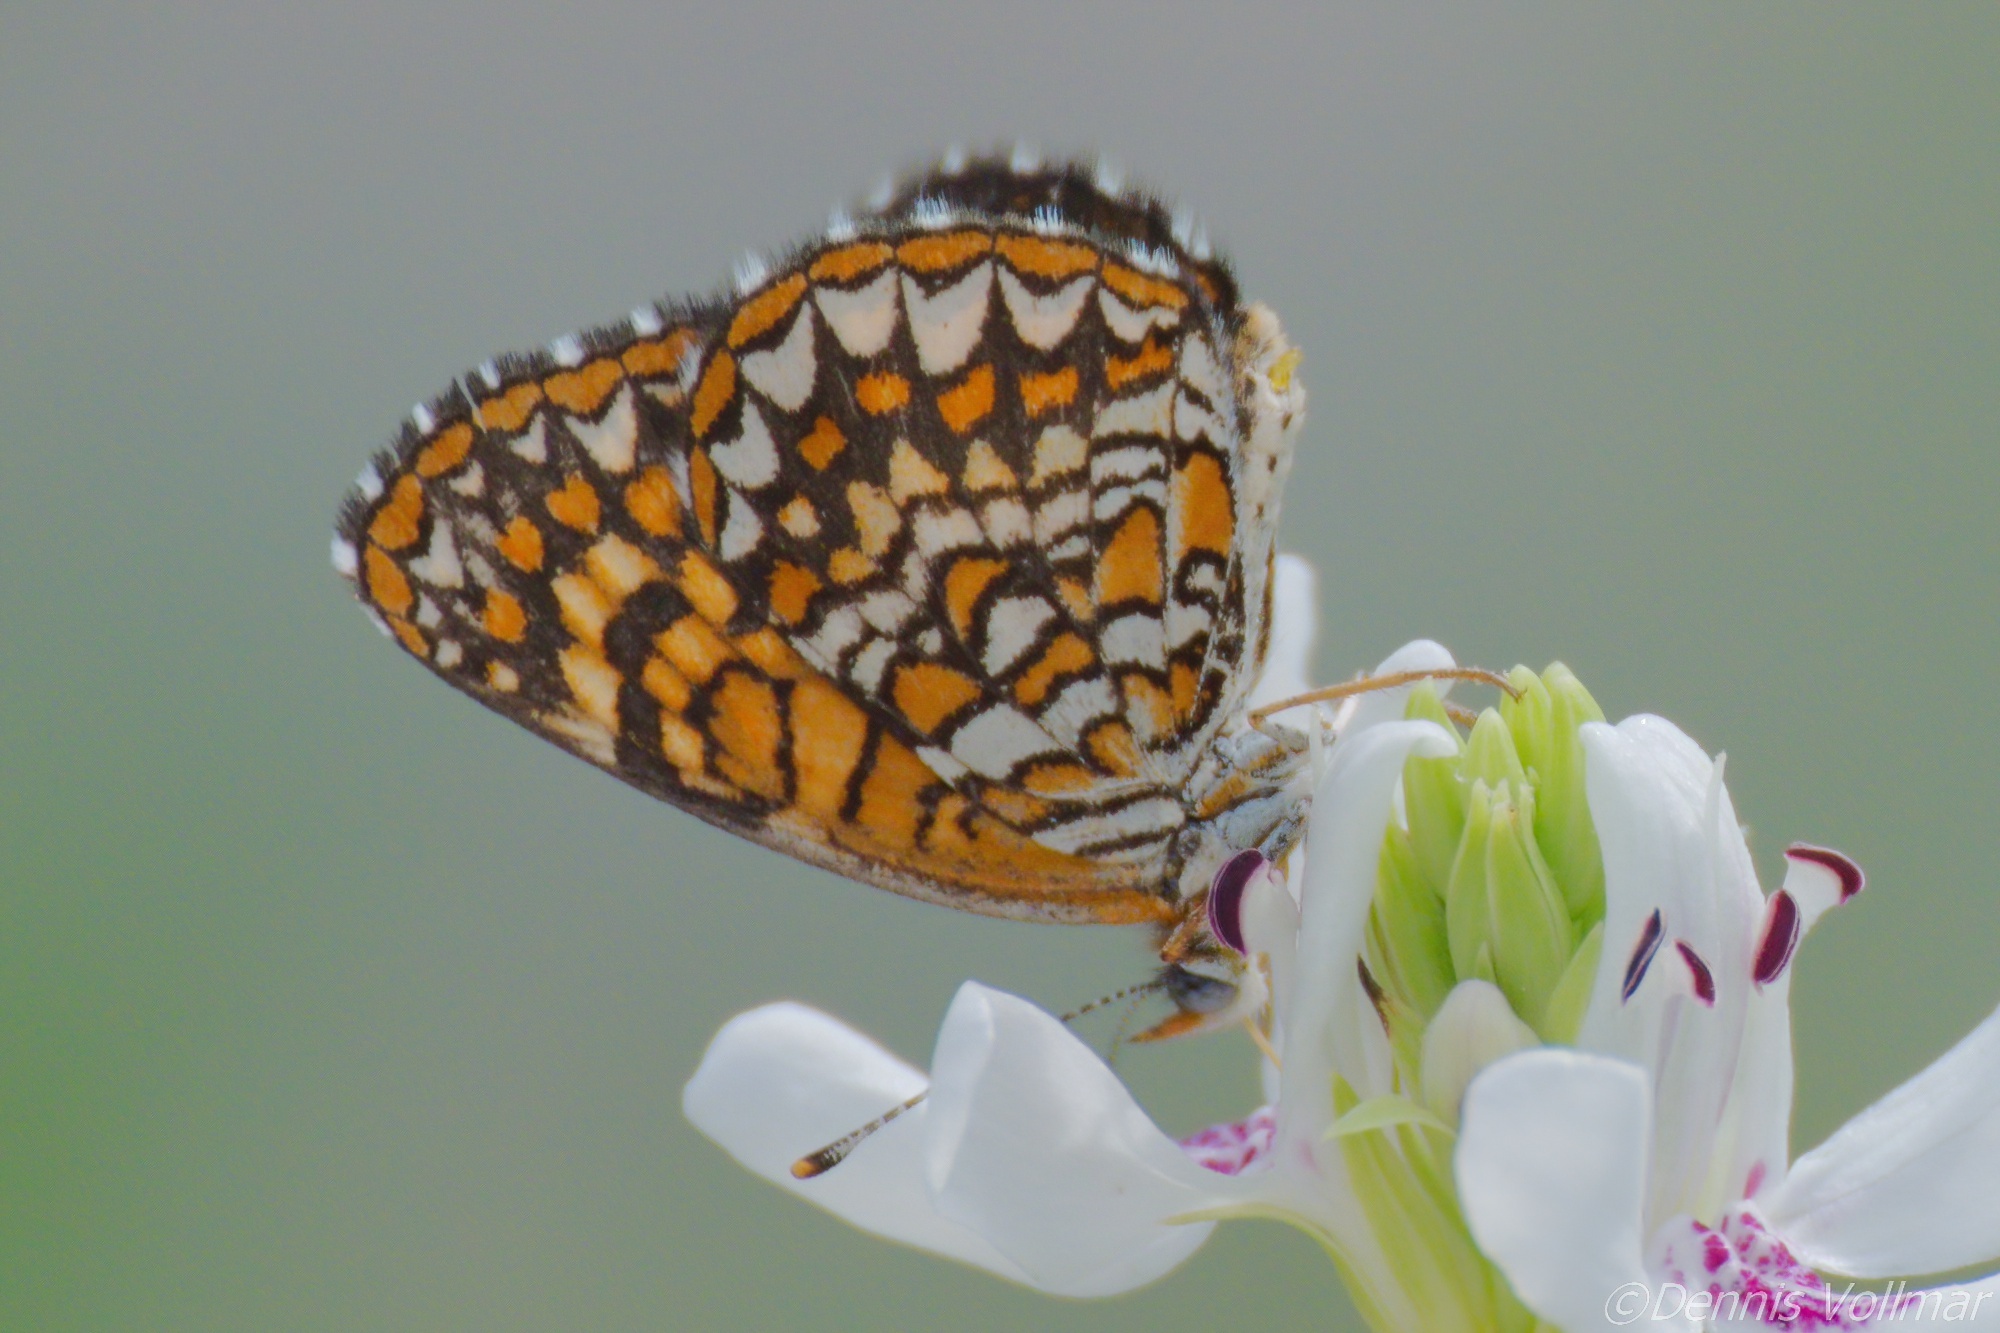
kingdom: Animalia
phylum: Arthropoda
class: Insecta
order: Lepidoptera
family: Nymphalidae
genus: Texola
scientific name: Texola elada
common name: Elada checkerspot
